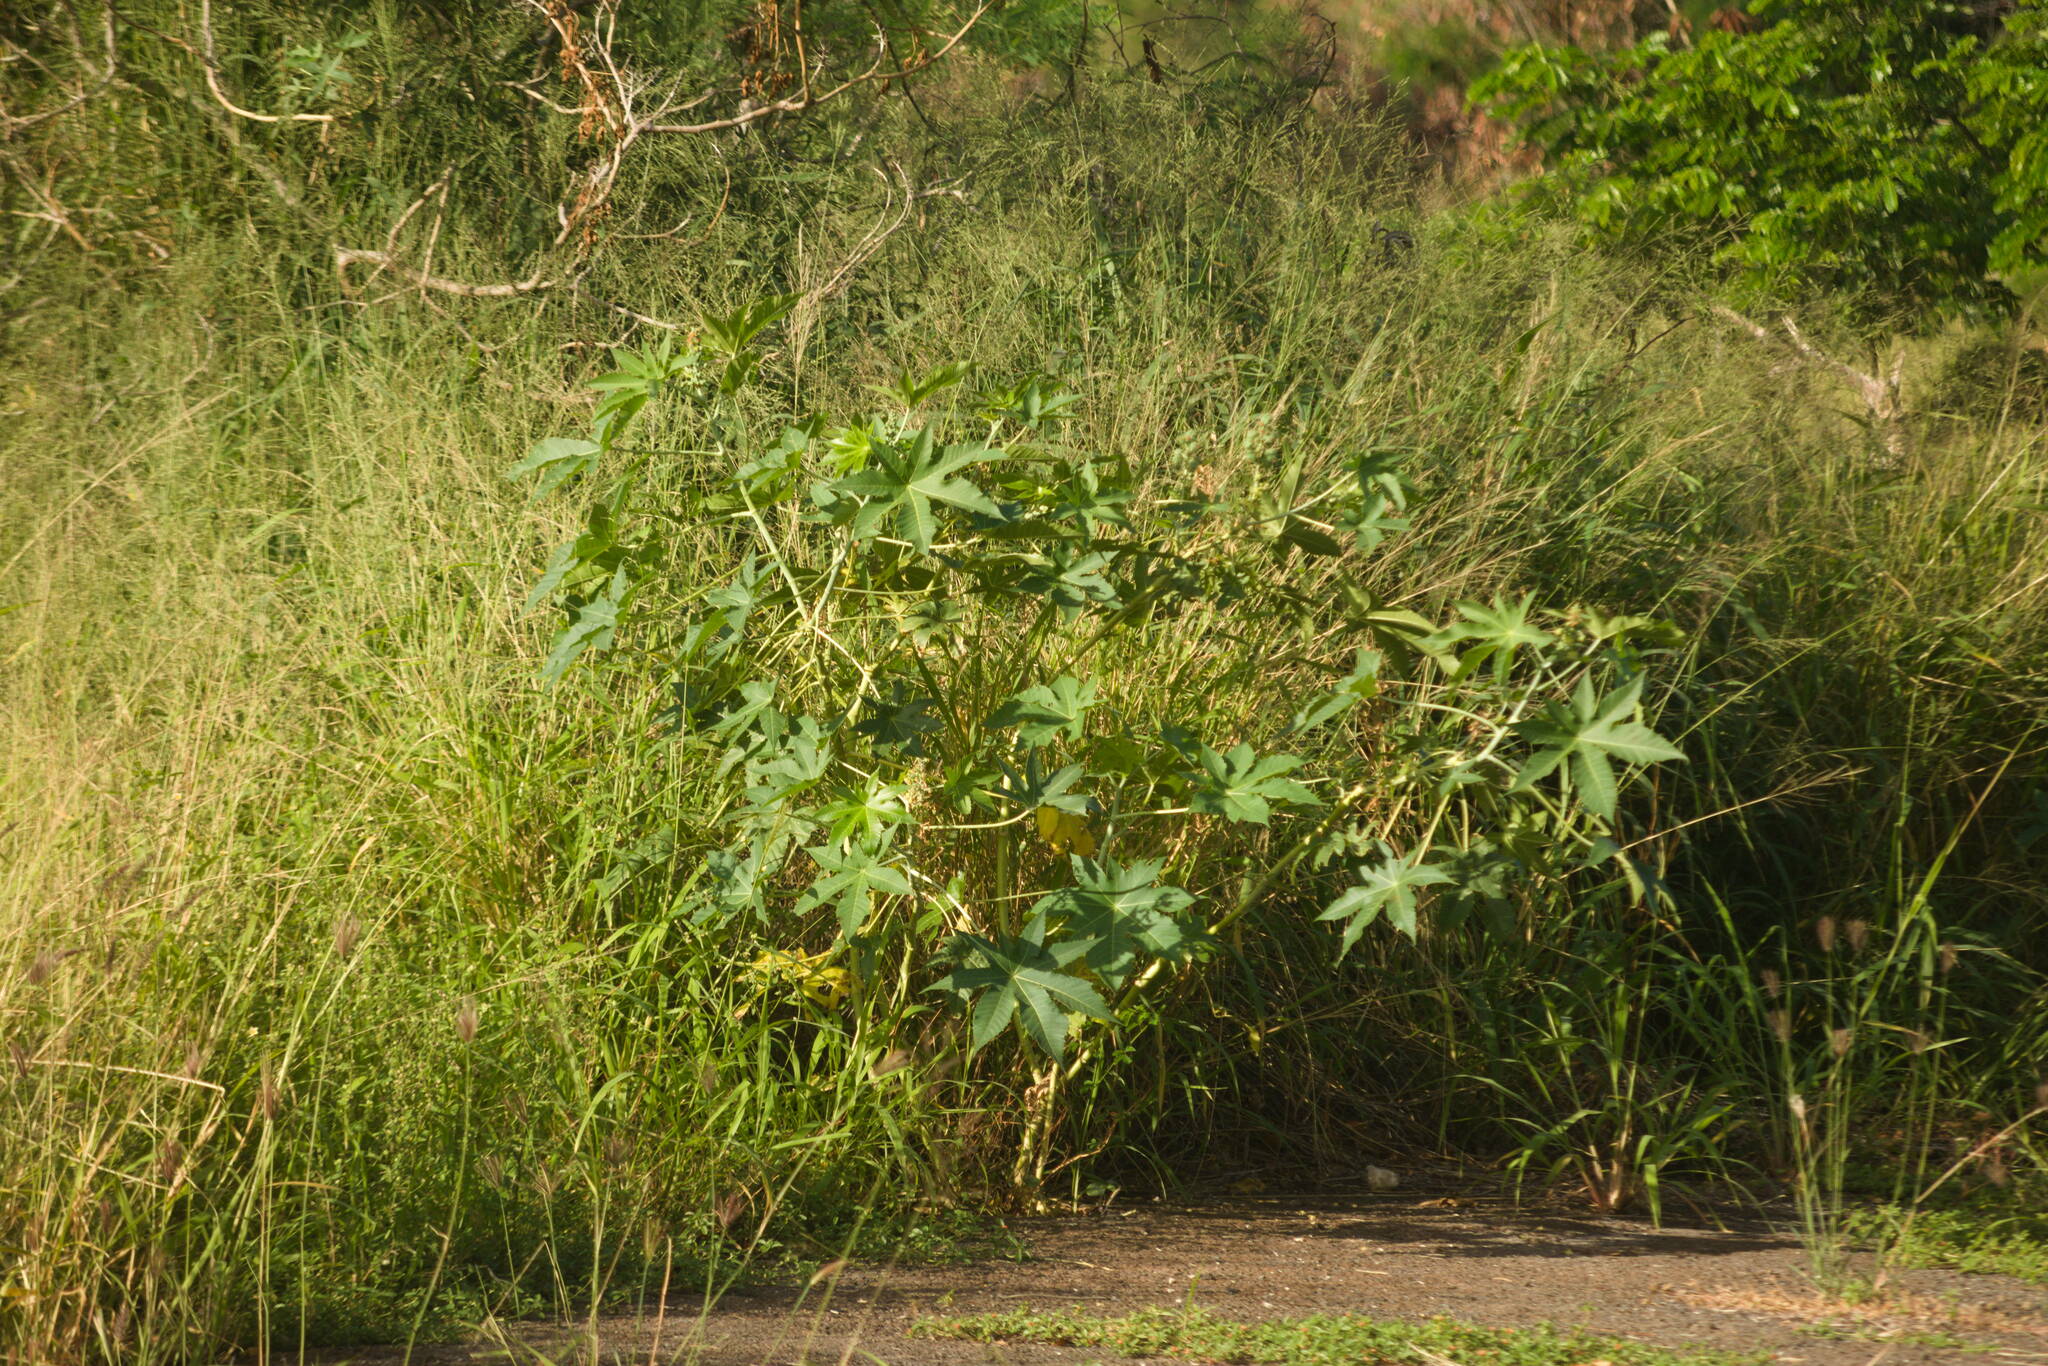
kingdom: Plantae
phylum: Tracheophyta
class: Magnoliopsida
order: Malpighiales
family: Euphorbiaceae
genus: Ricinus
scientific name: Ricinus communis
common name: Castor-oil-plant
